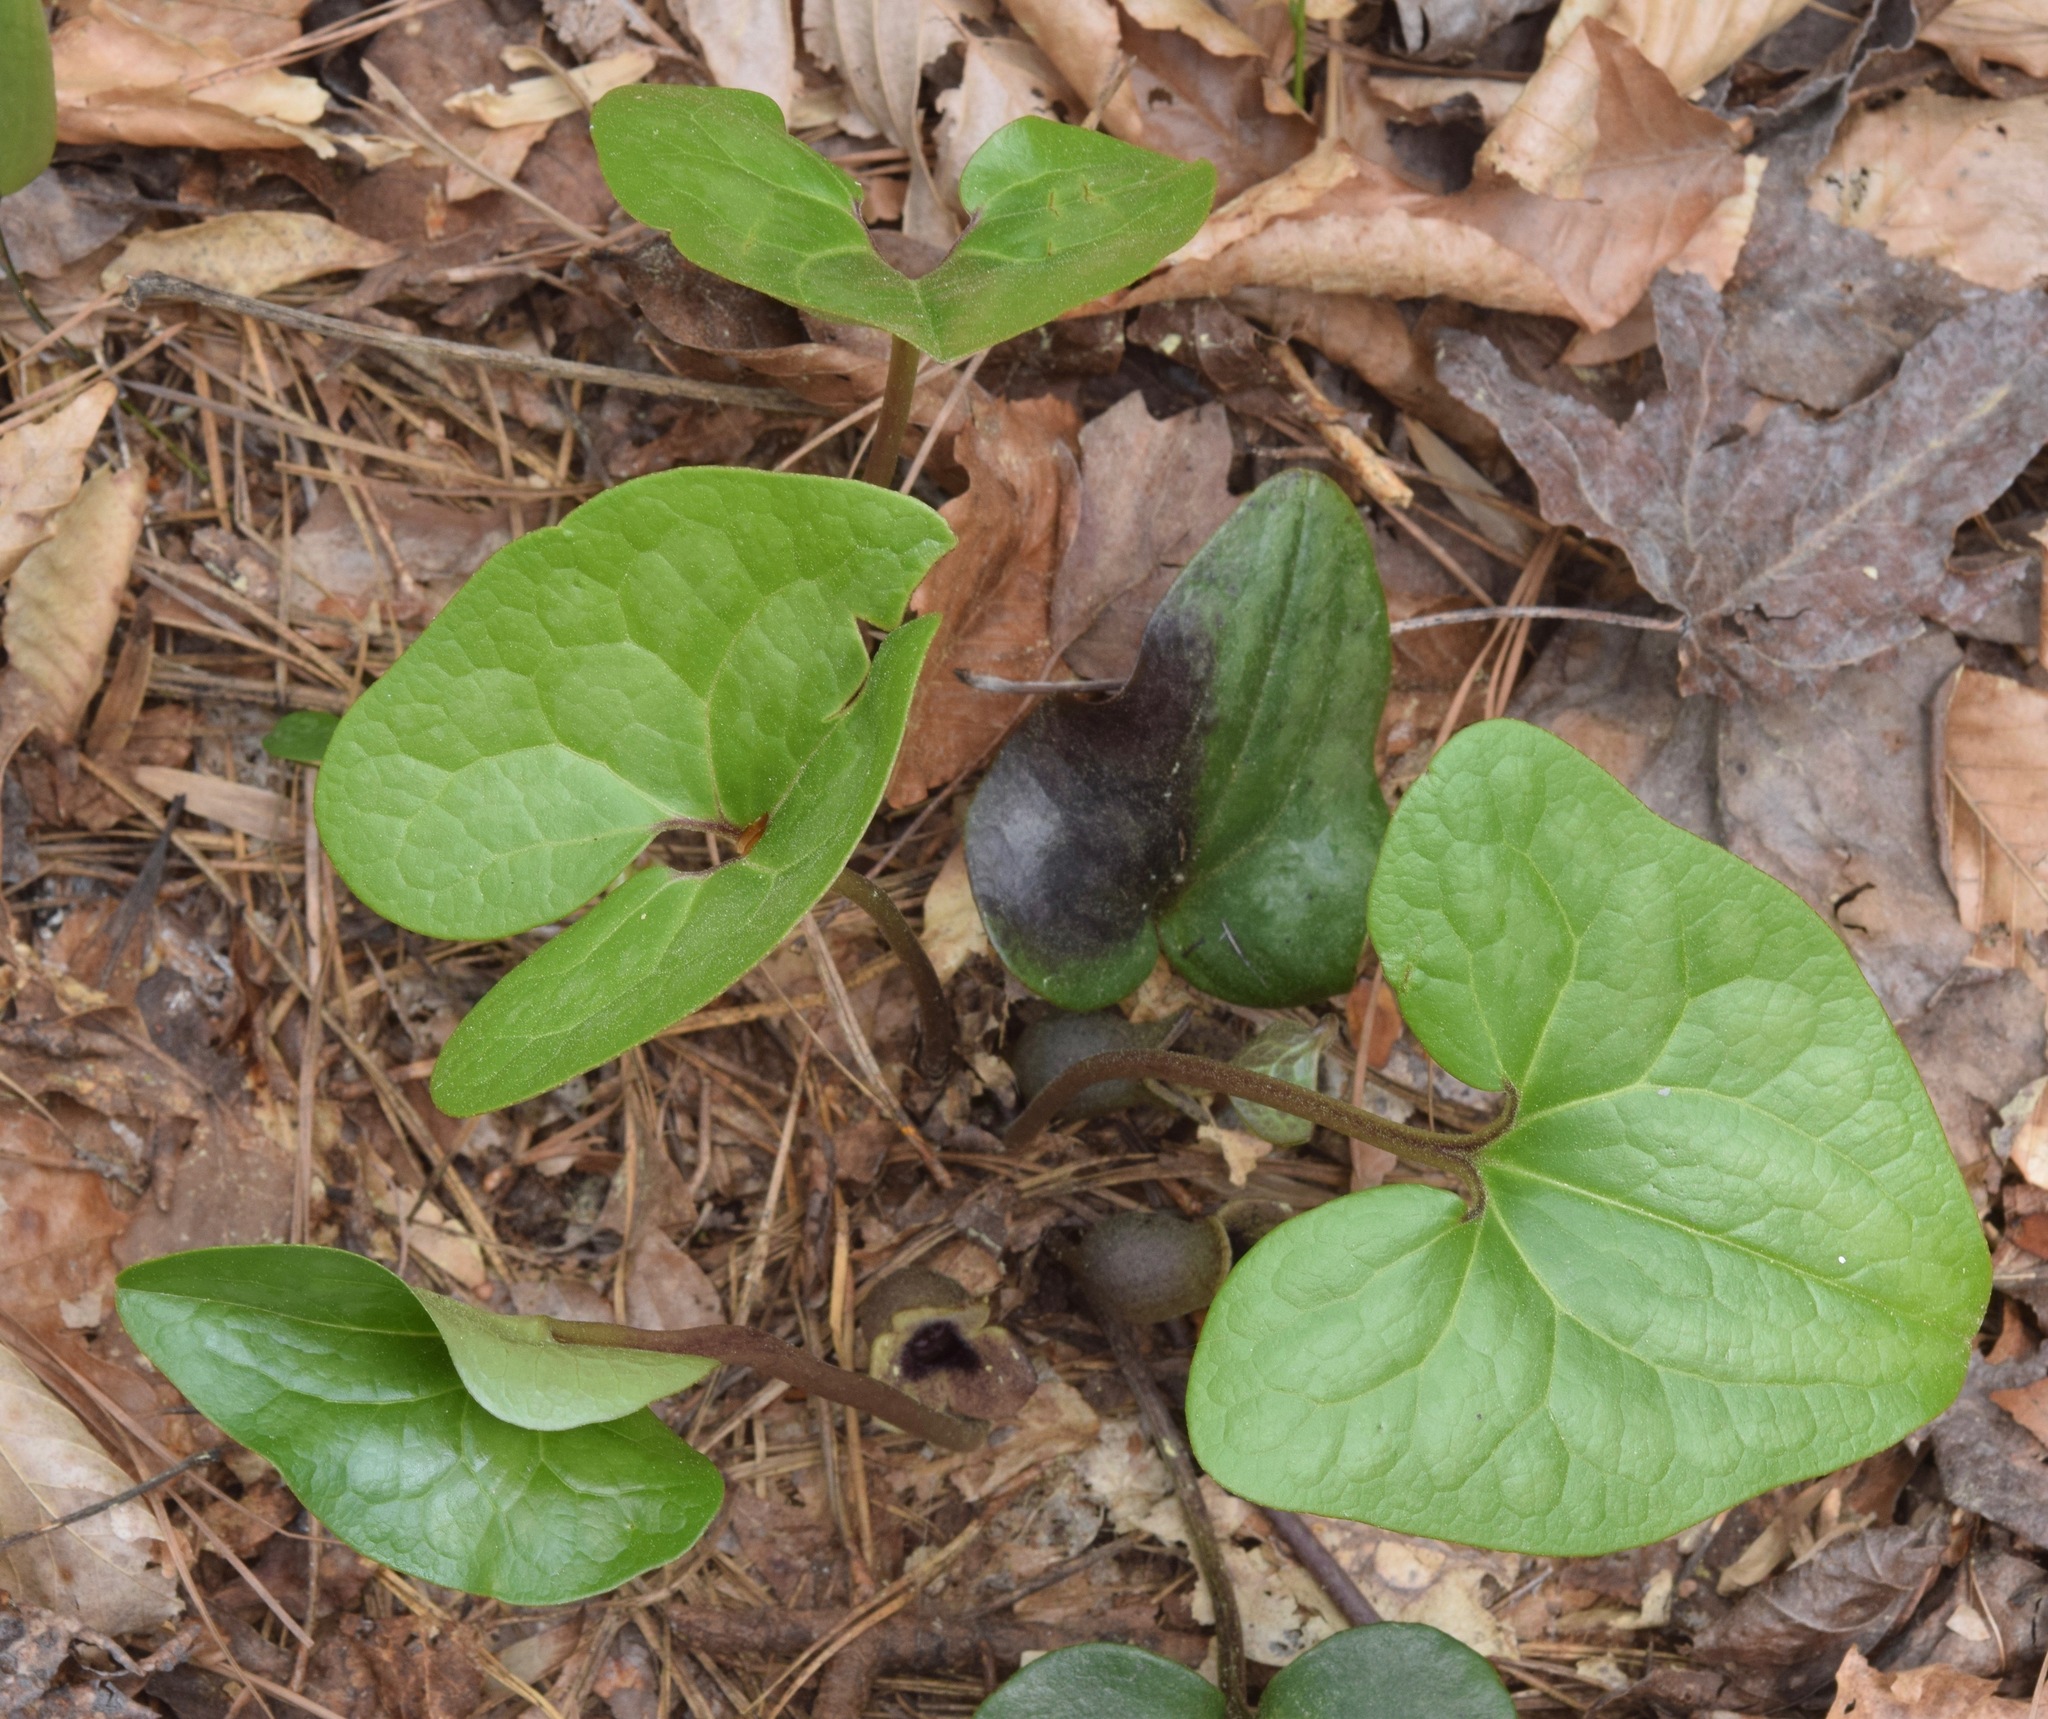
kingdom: Plantae
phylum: Tracheophyta
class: Magnoliopsida
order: Piperales
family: Aristolochiaceae
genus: Hexastylis
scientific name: Hexastylis arifolia
